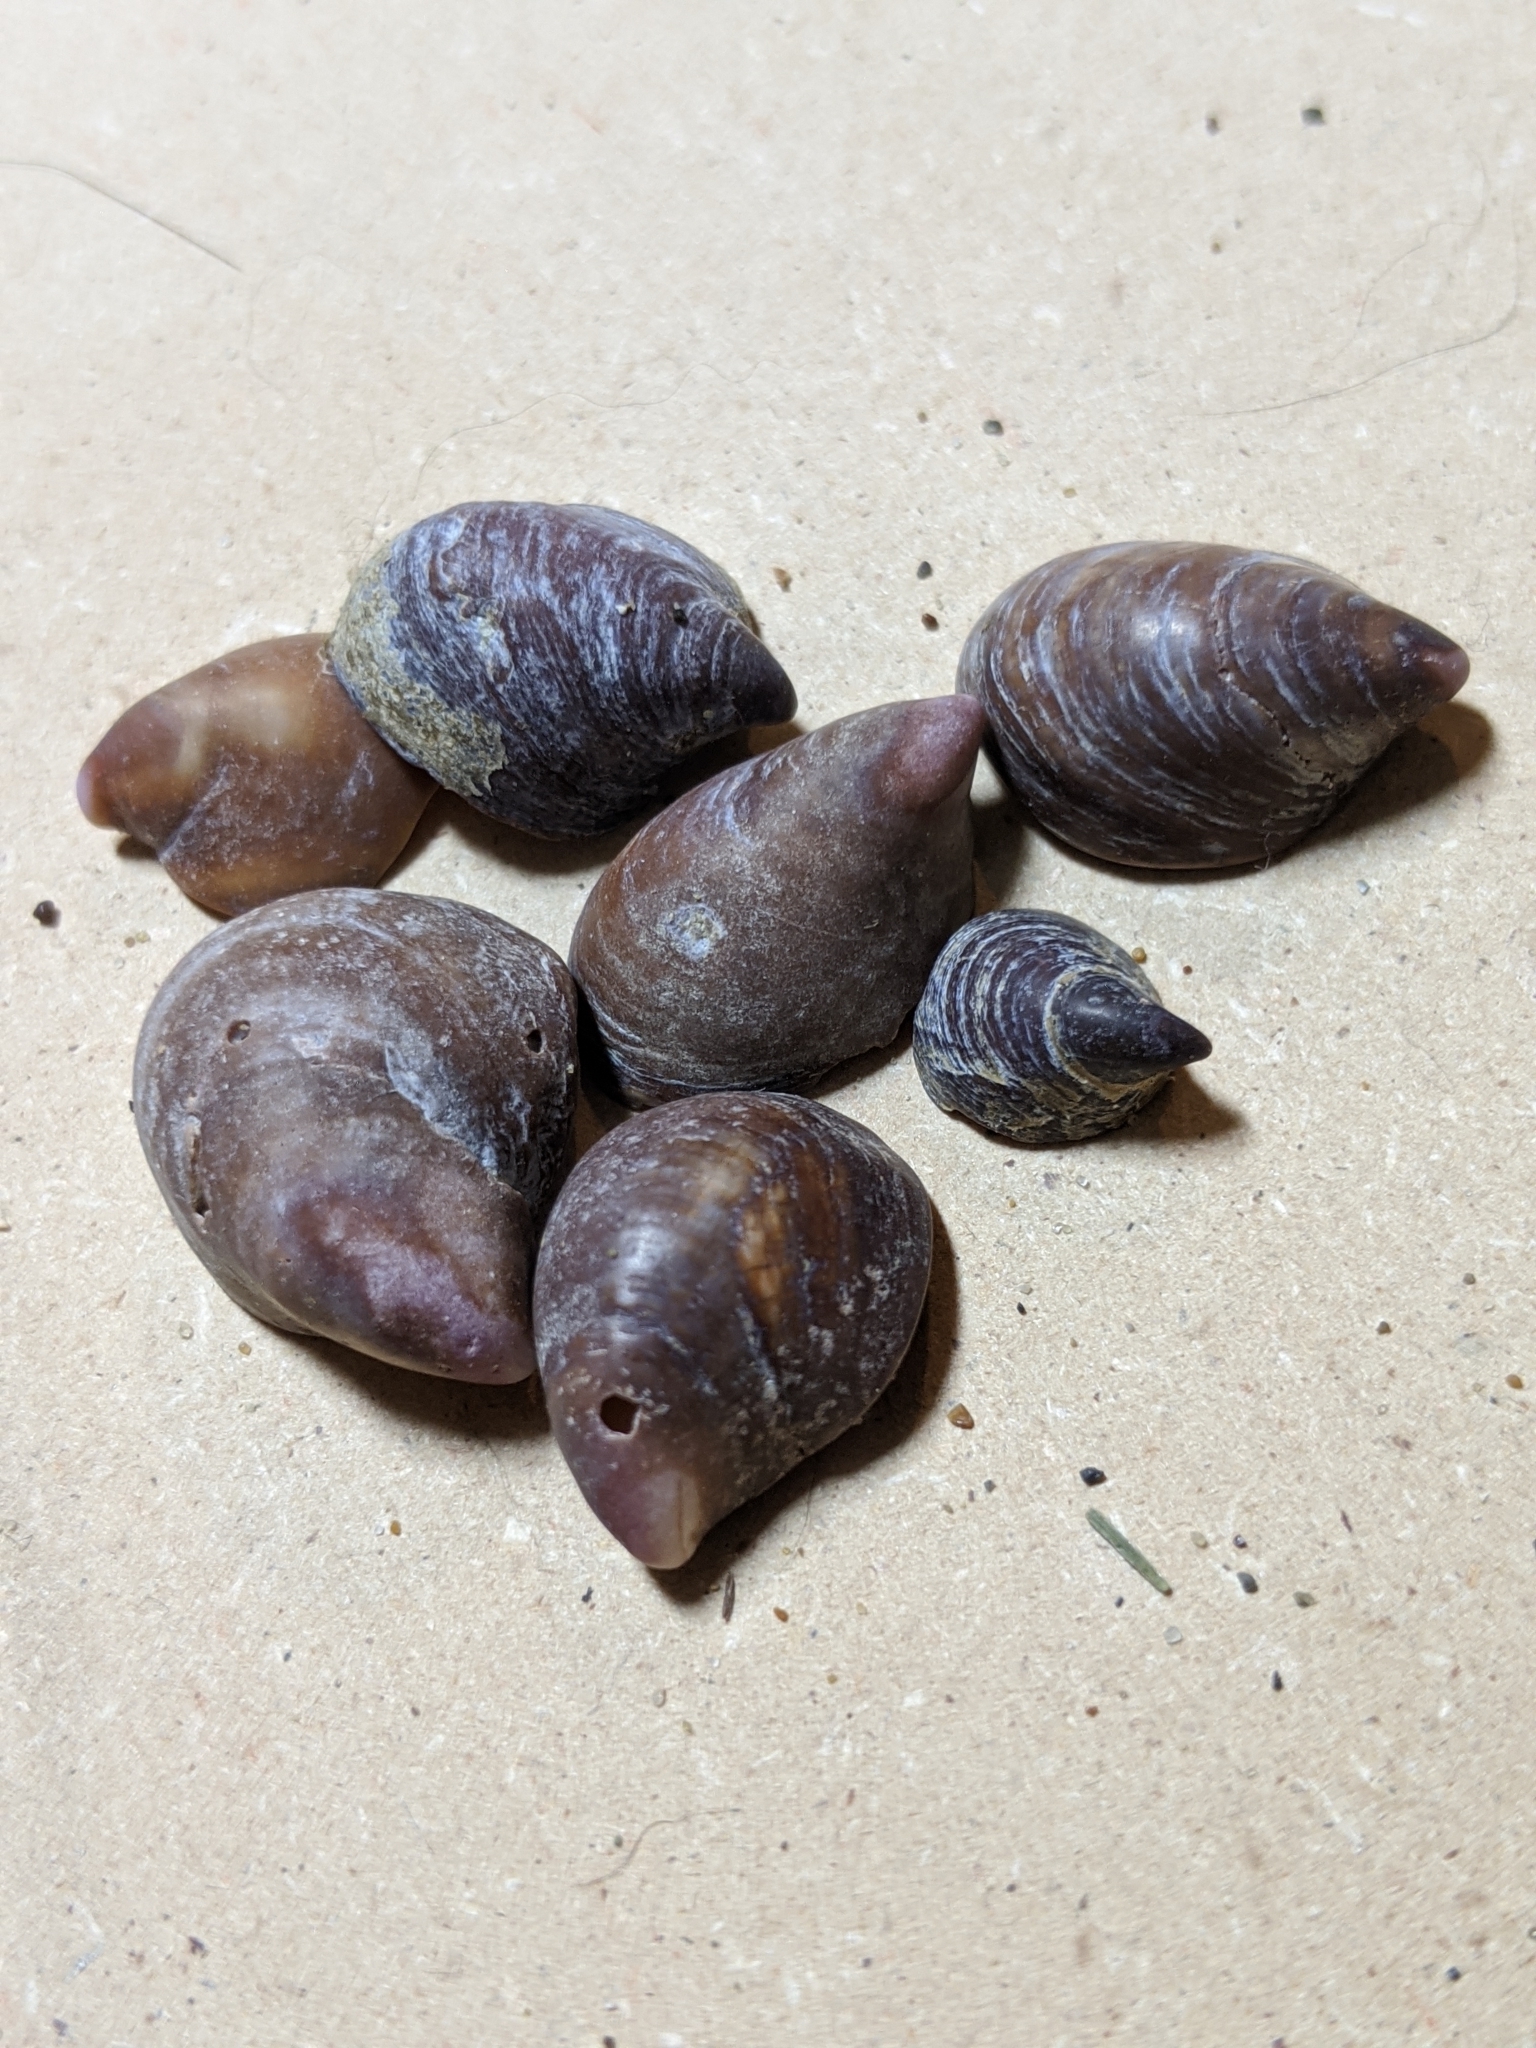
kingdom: Animalia
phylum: Mollusca
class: Gastropoda
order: Littorinimorpha
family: Calyptraeidae
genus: Crepidula
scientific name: Crepidula adunca
